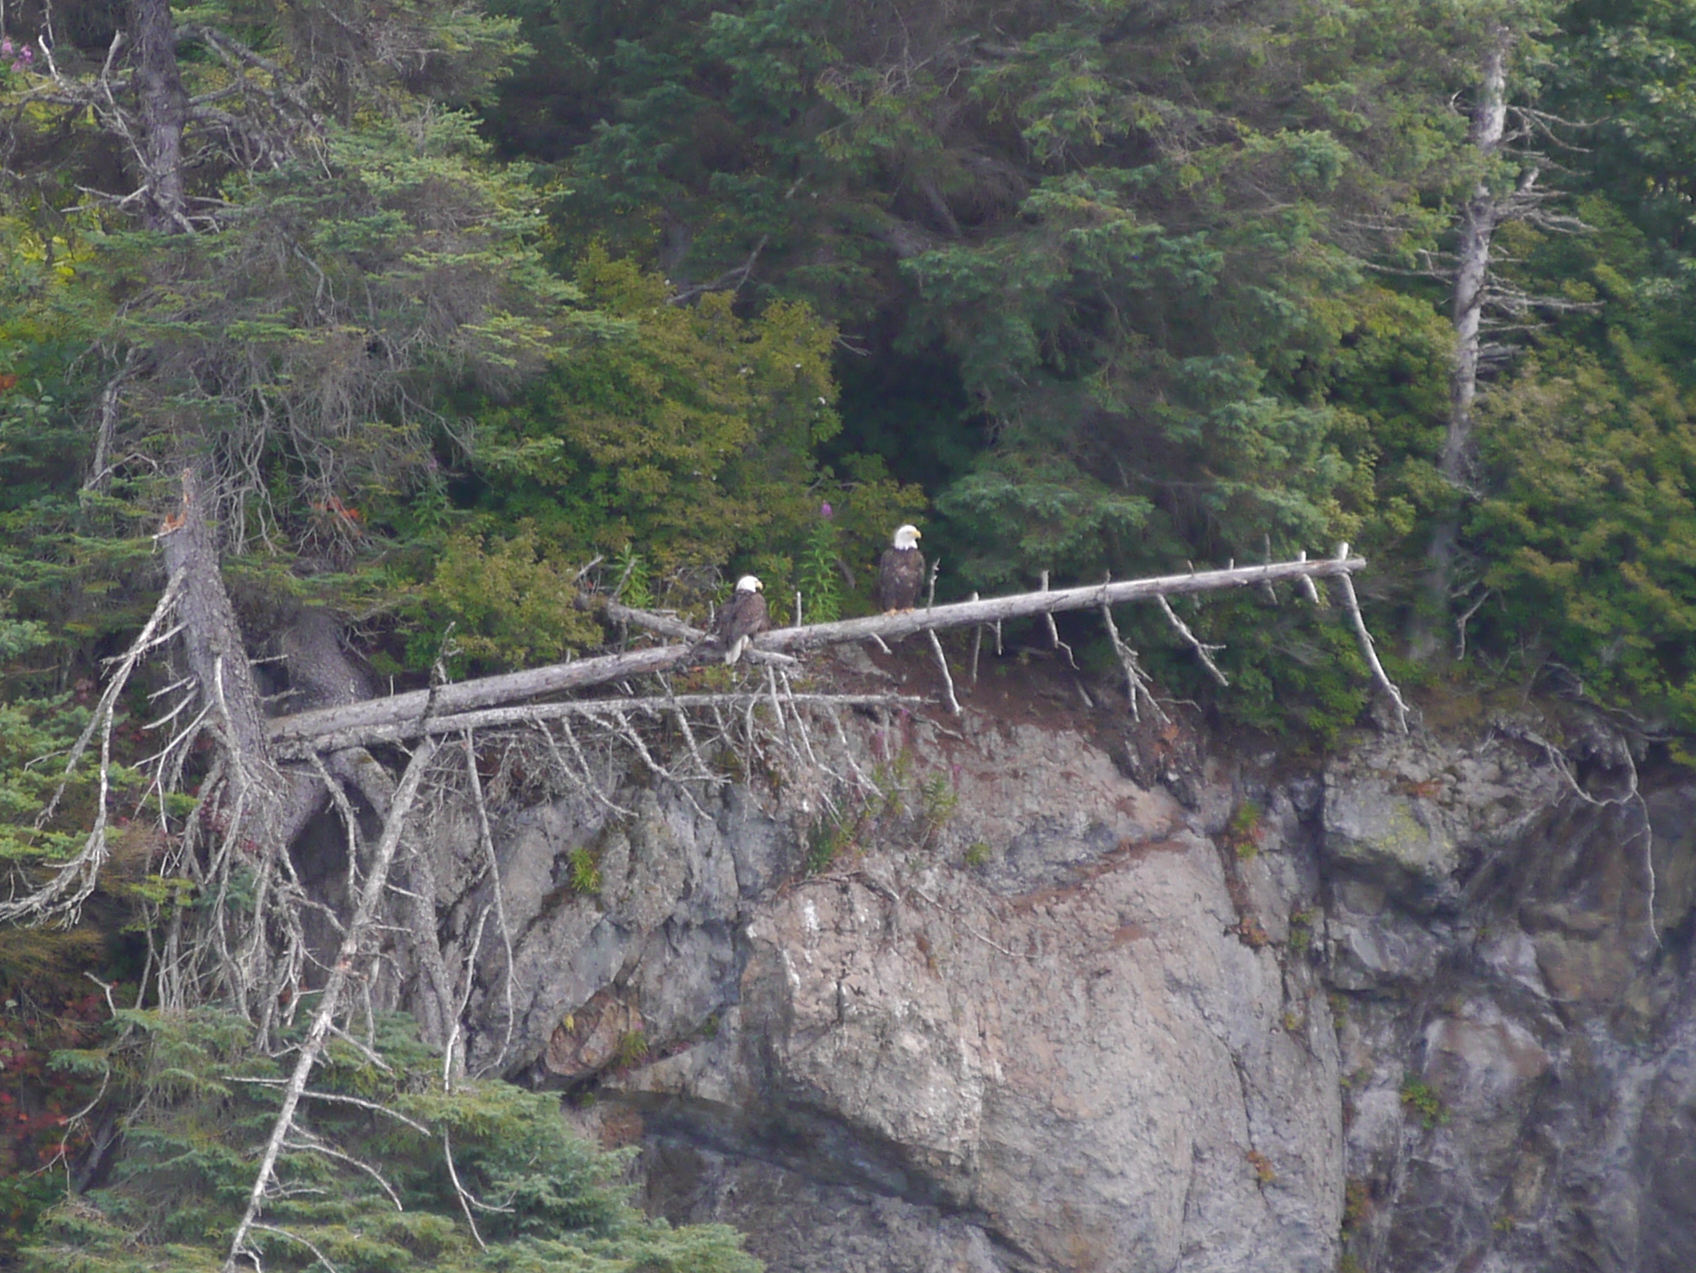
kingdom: Animalia
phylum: Chordata
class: Aves
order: Accipitriformes
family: Accipitridae
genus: Haliaeetus
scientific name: Haliaeetus leucocephalus
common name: Bald eagle
